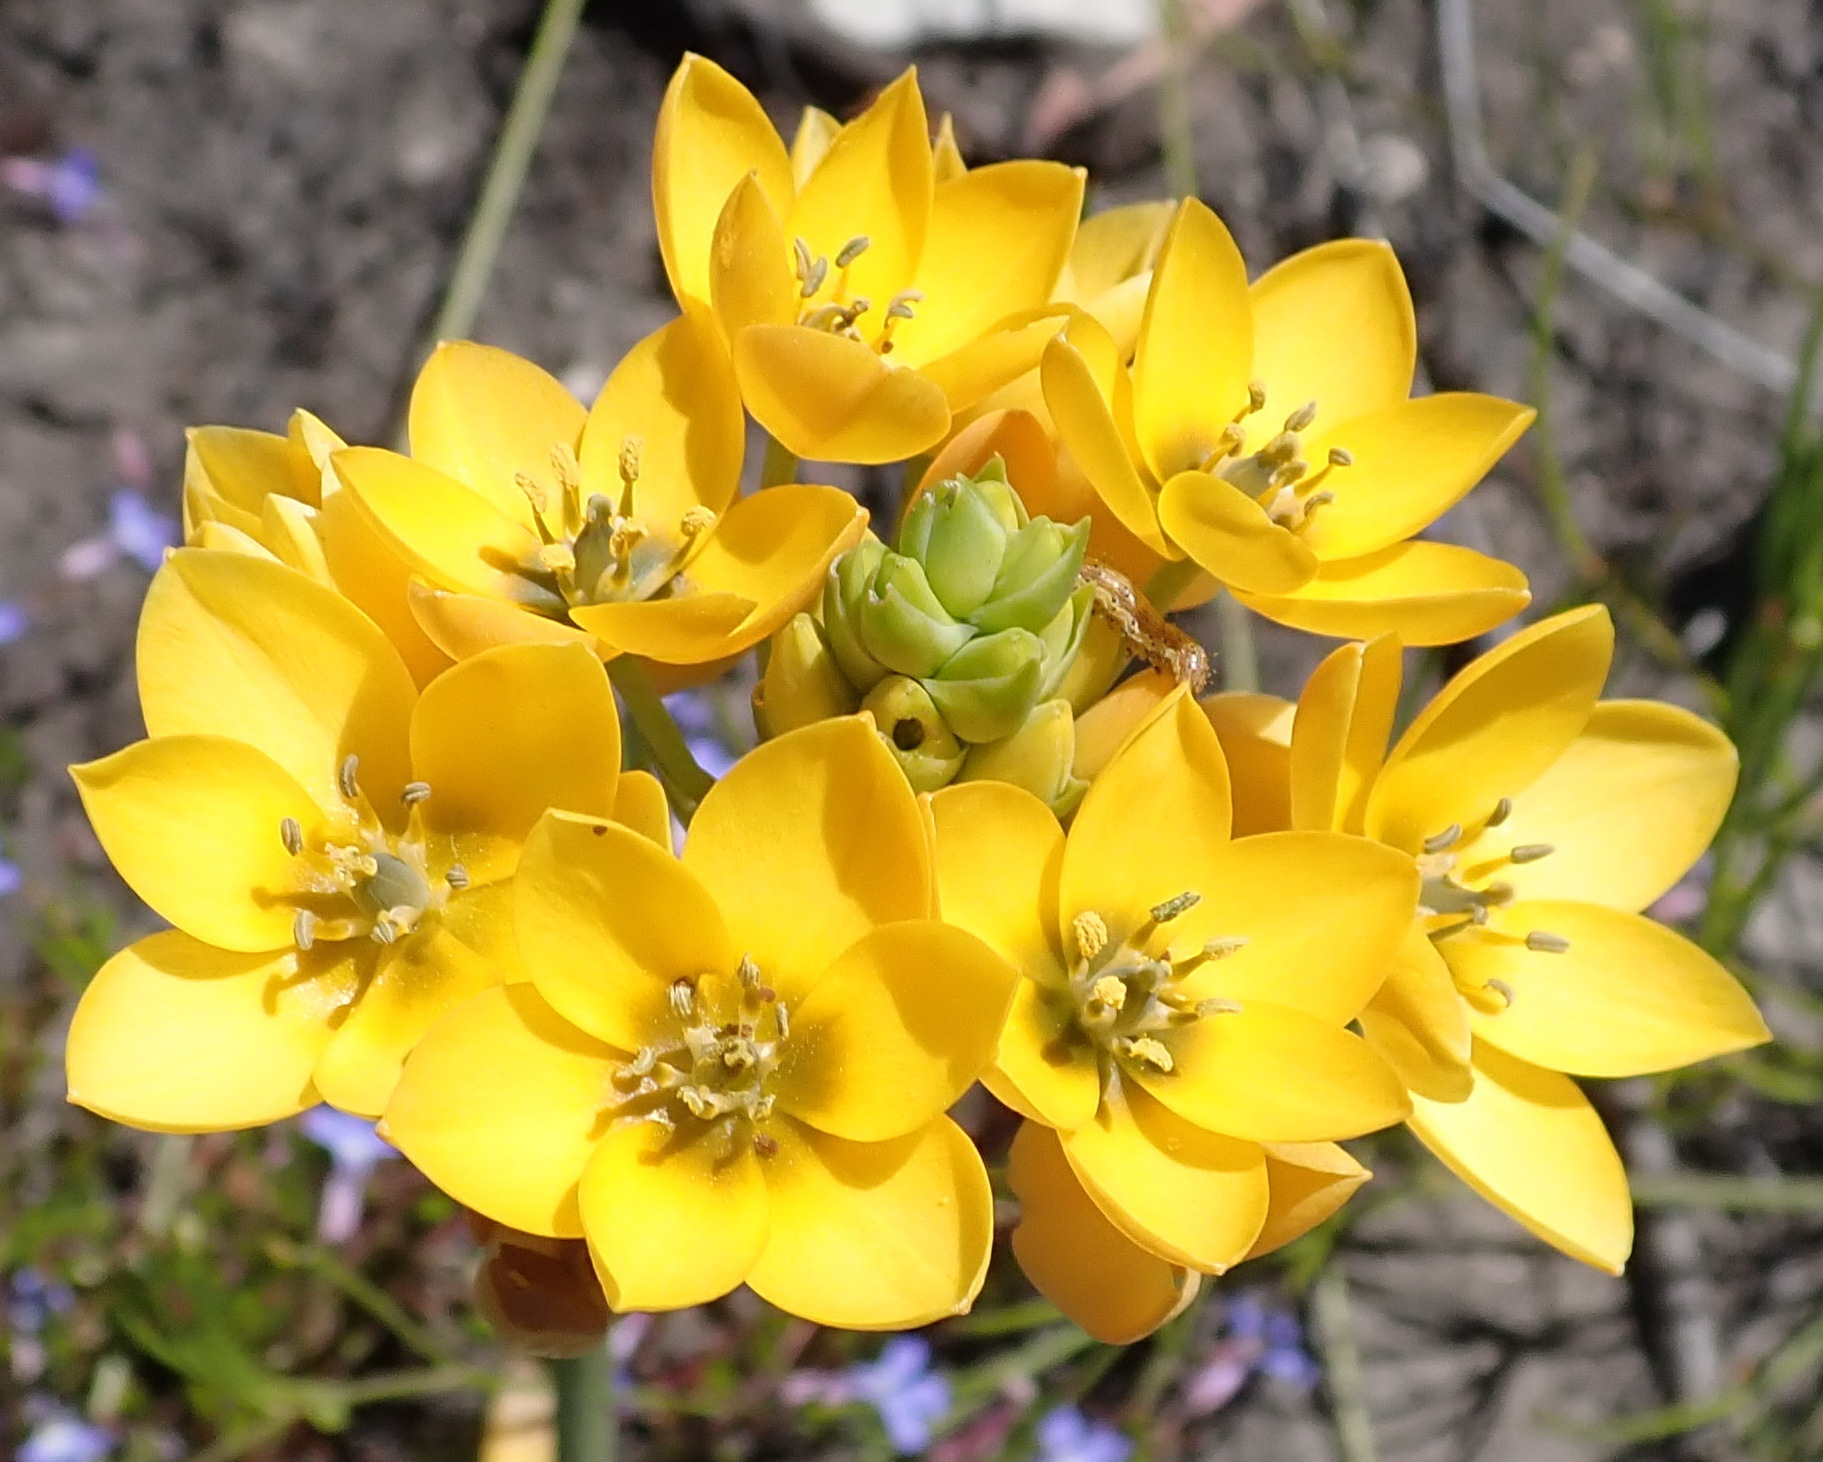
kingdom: Plantae
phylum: Tracheophyta
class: Liliopsida
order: Asparagales
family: Asparagaceae
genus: Ornithogalum
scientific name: Ornithogalum dubium
